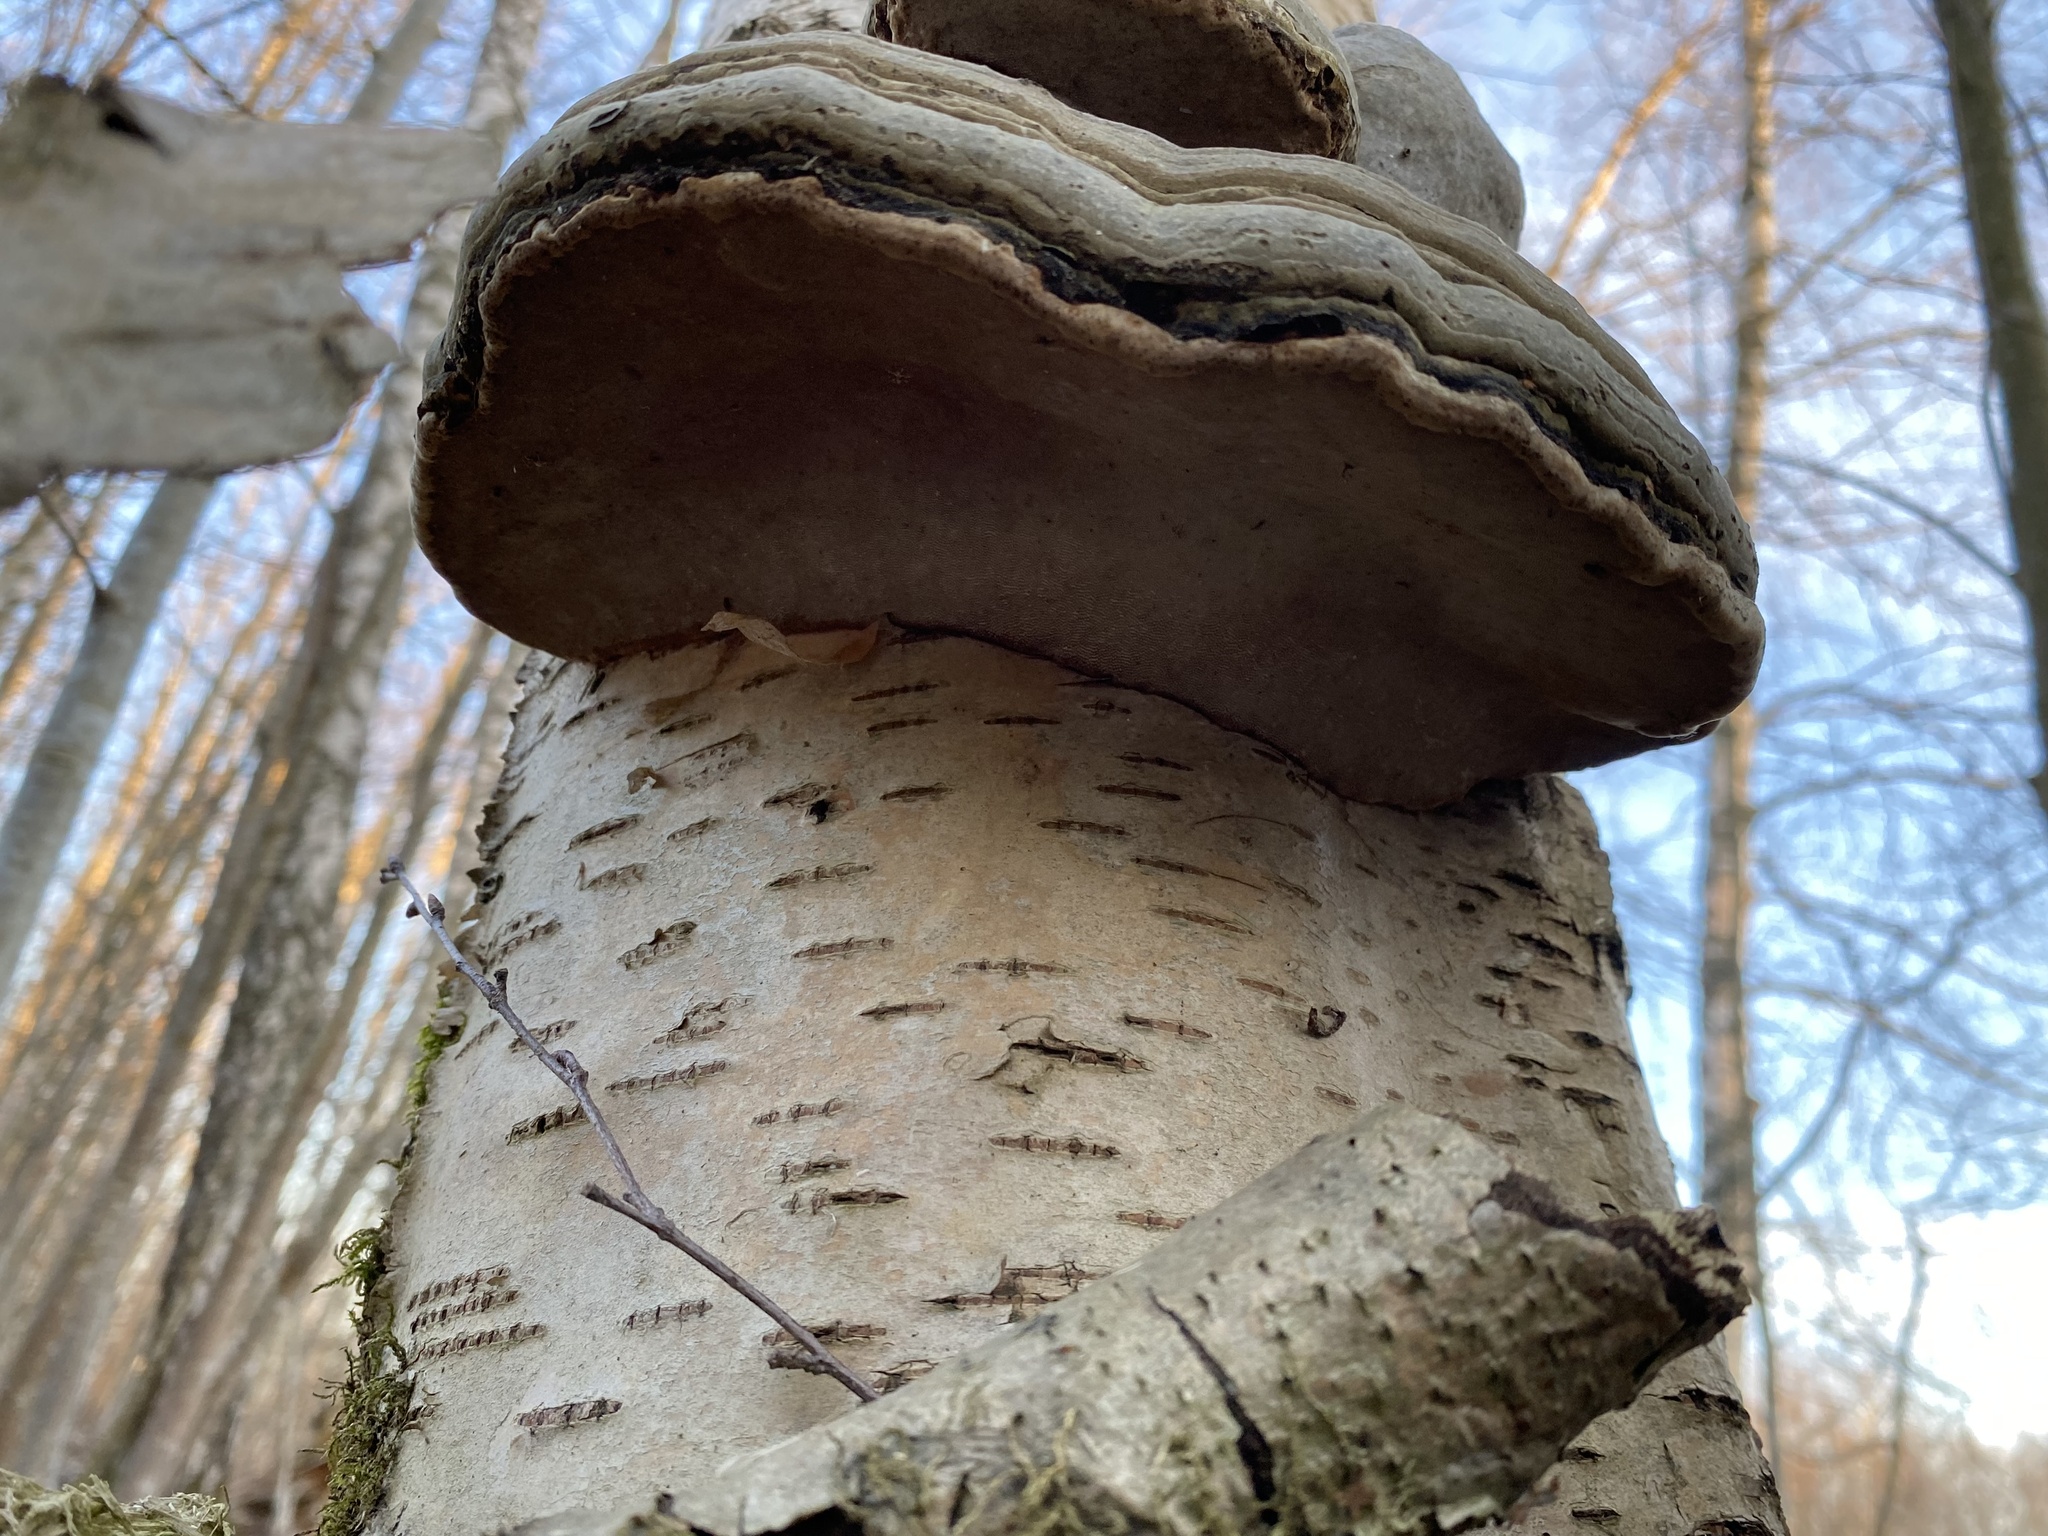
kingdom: Fungi
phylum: Basidiomycota
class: Agaricomycetes
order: Polyporales
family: Polyporaceae
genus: Fomes
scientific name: Fomes fomentarius
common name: Hoof fungus
